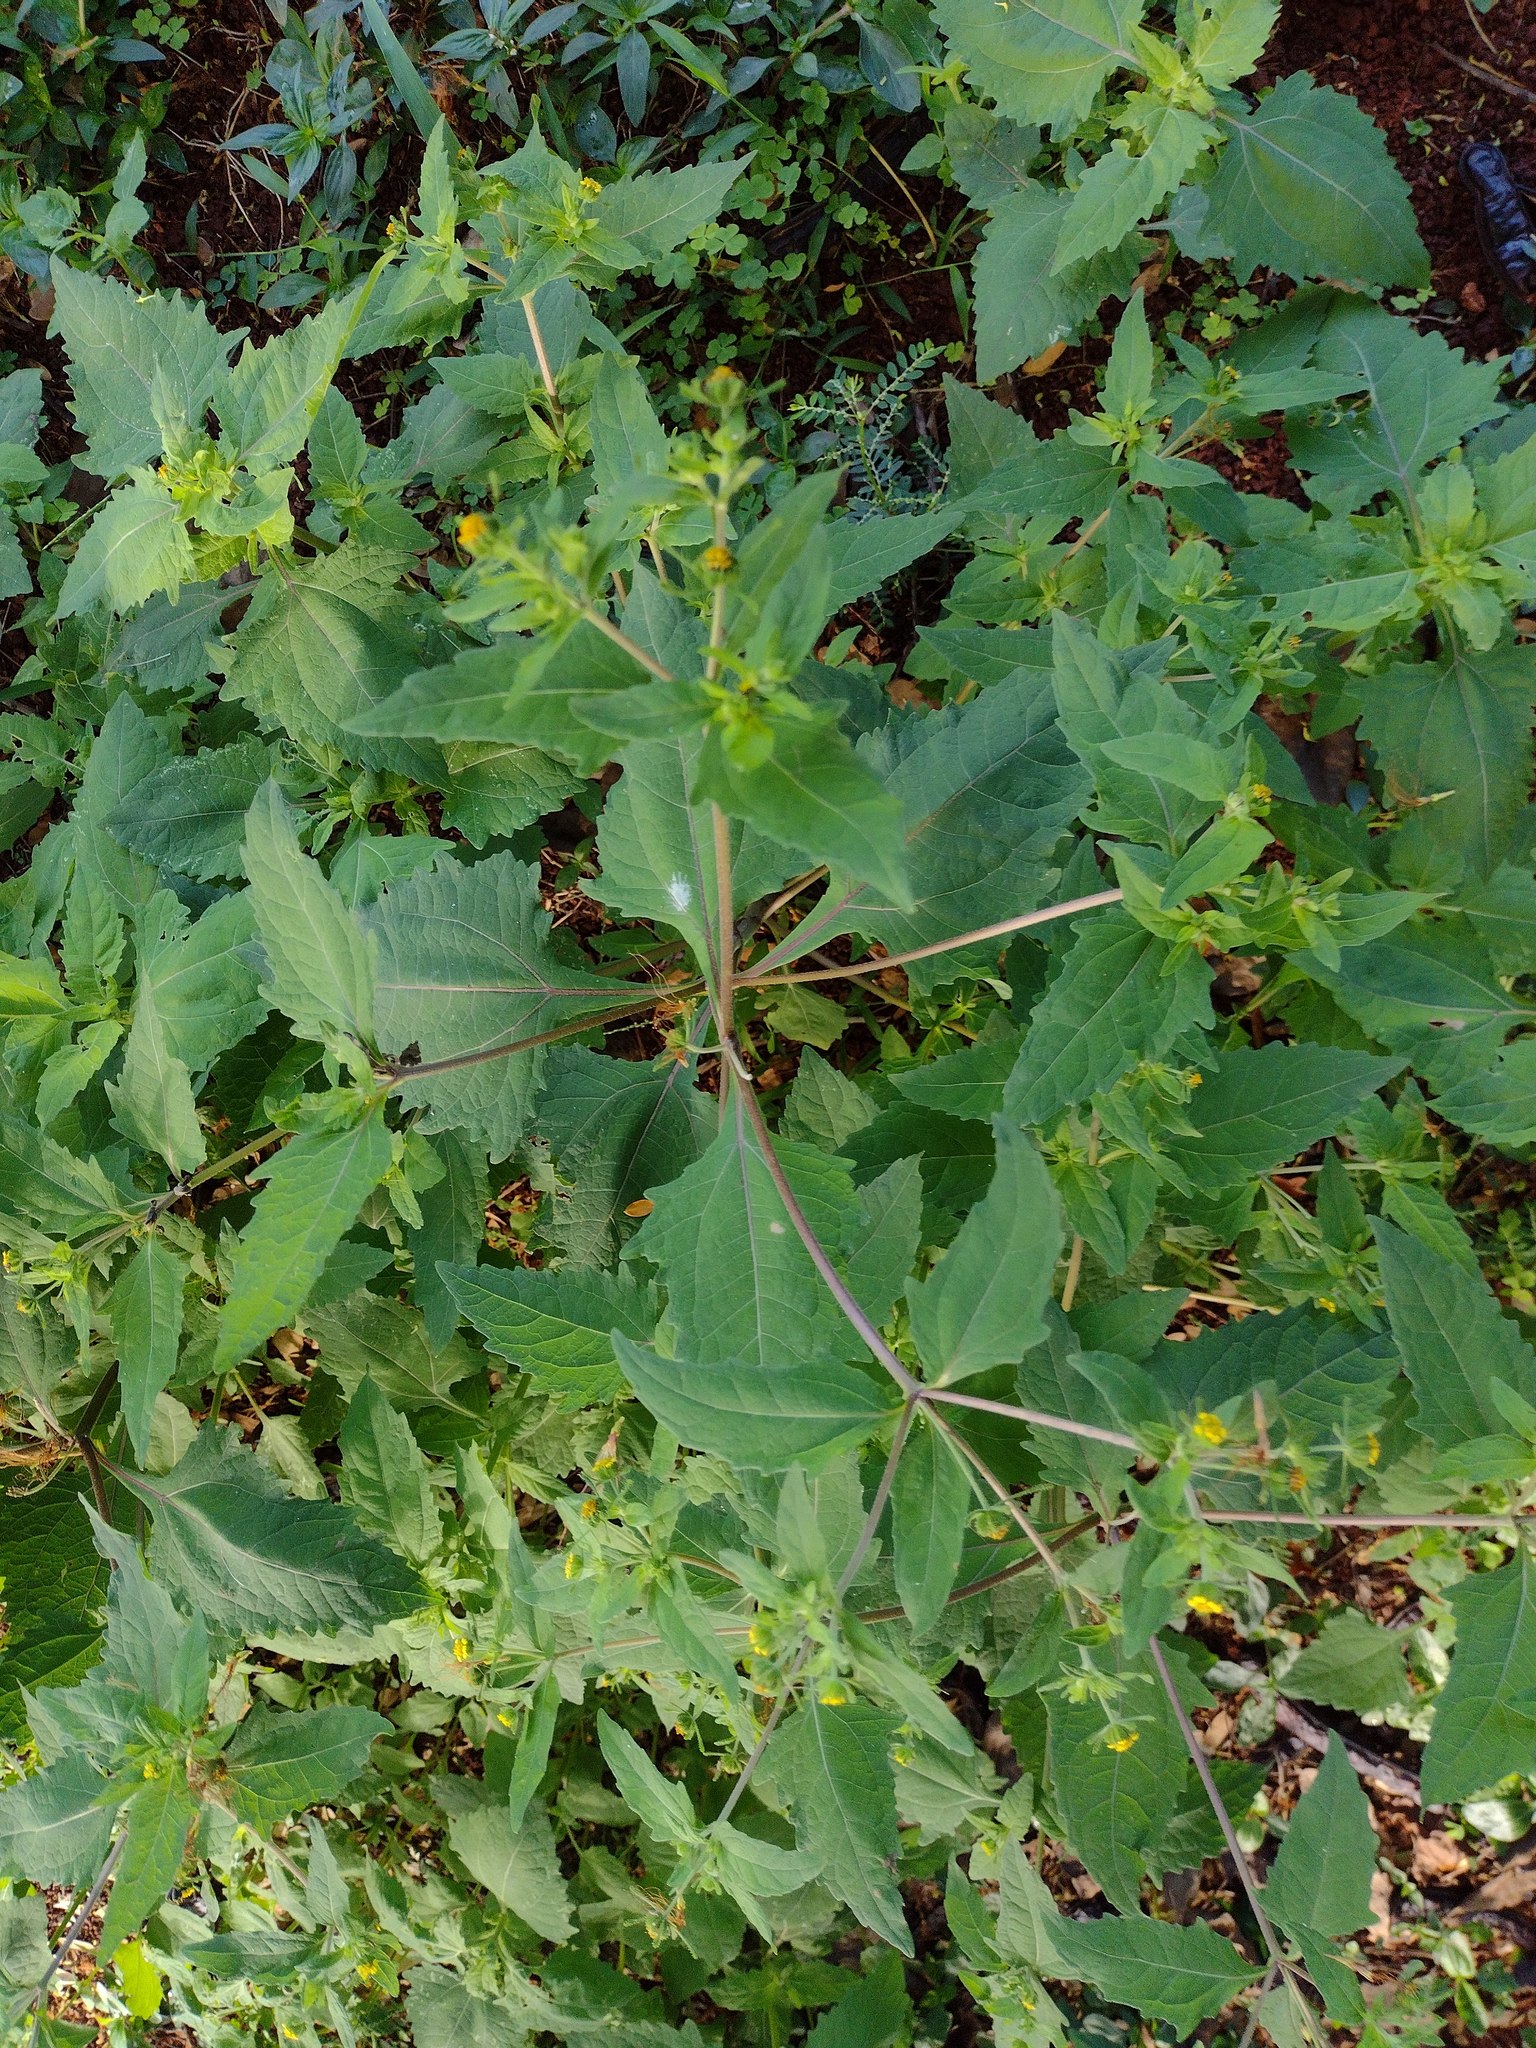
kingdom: Plantae
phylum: Tracheophyta
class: Magnoliopsida
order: Asterales
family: Asteraceae
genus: Sigesbeckia
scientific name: Sigesbeckia orientalis
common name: Eastern st paul's-wort
